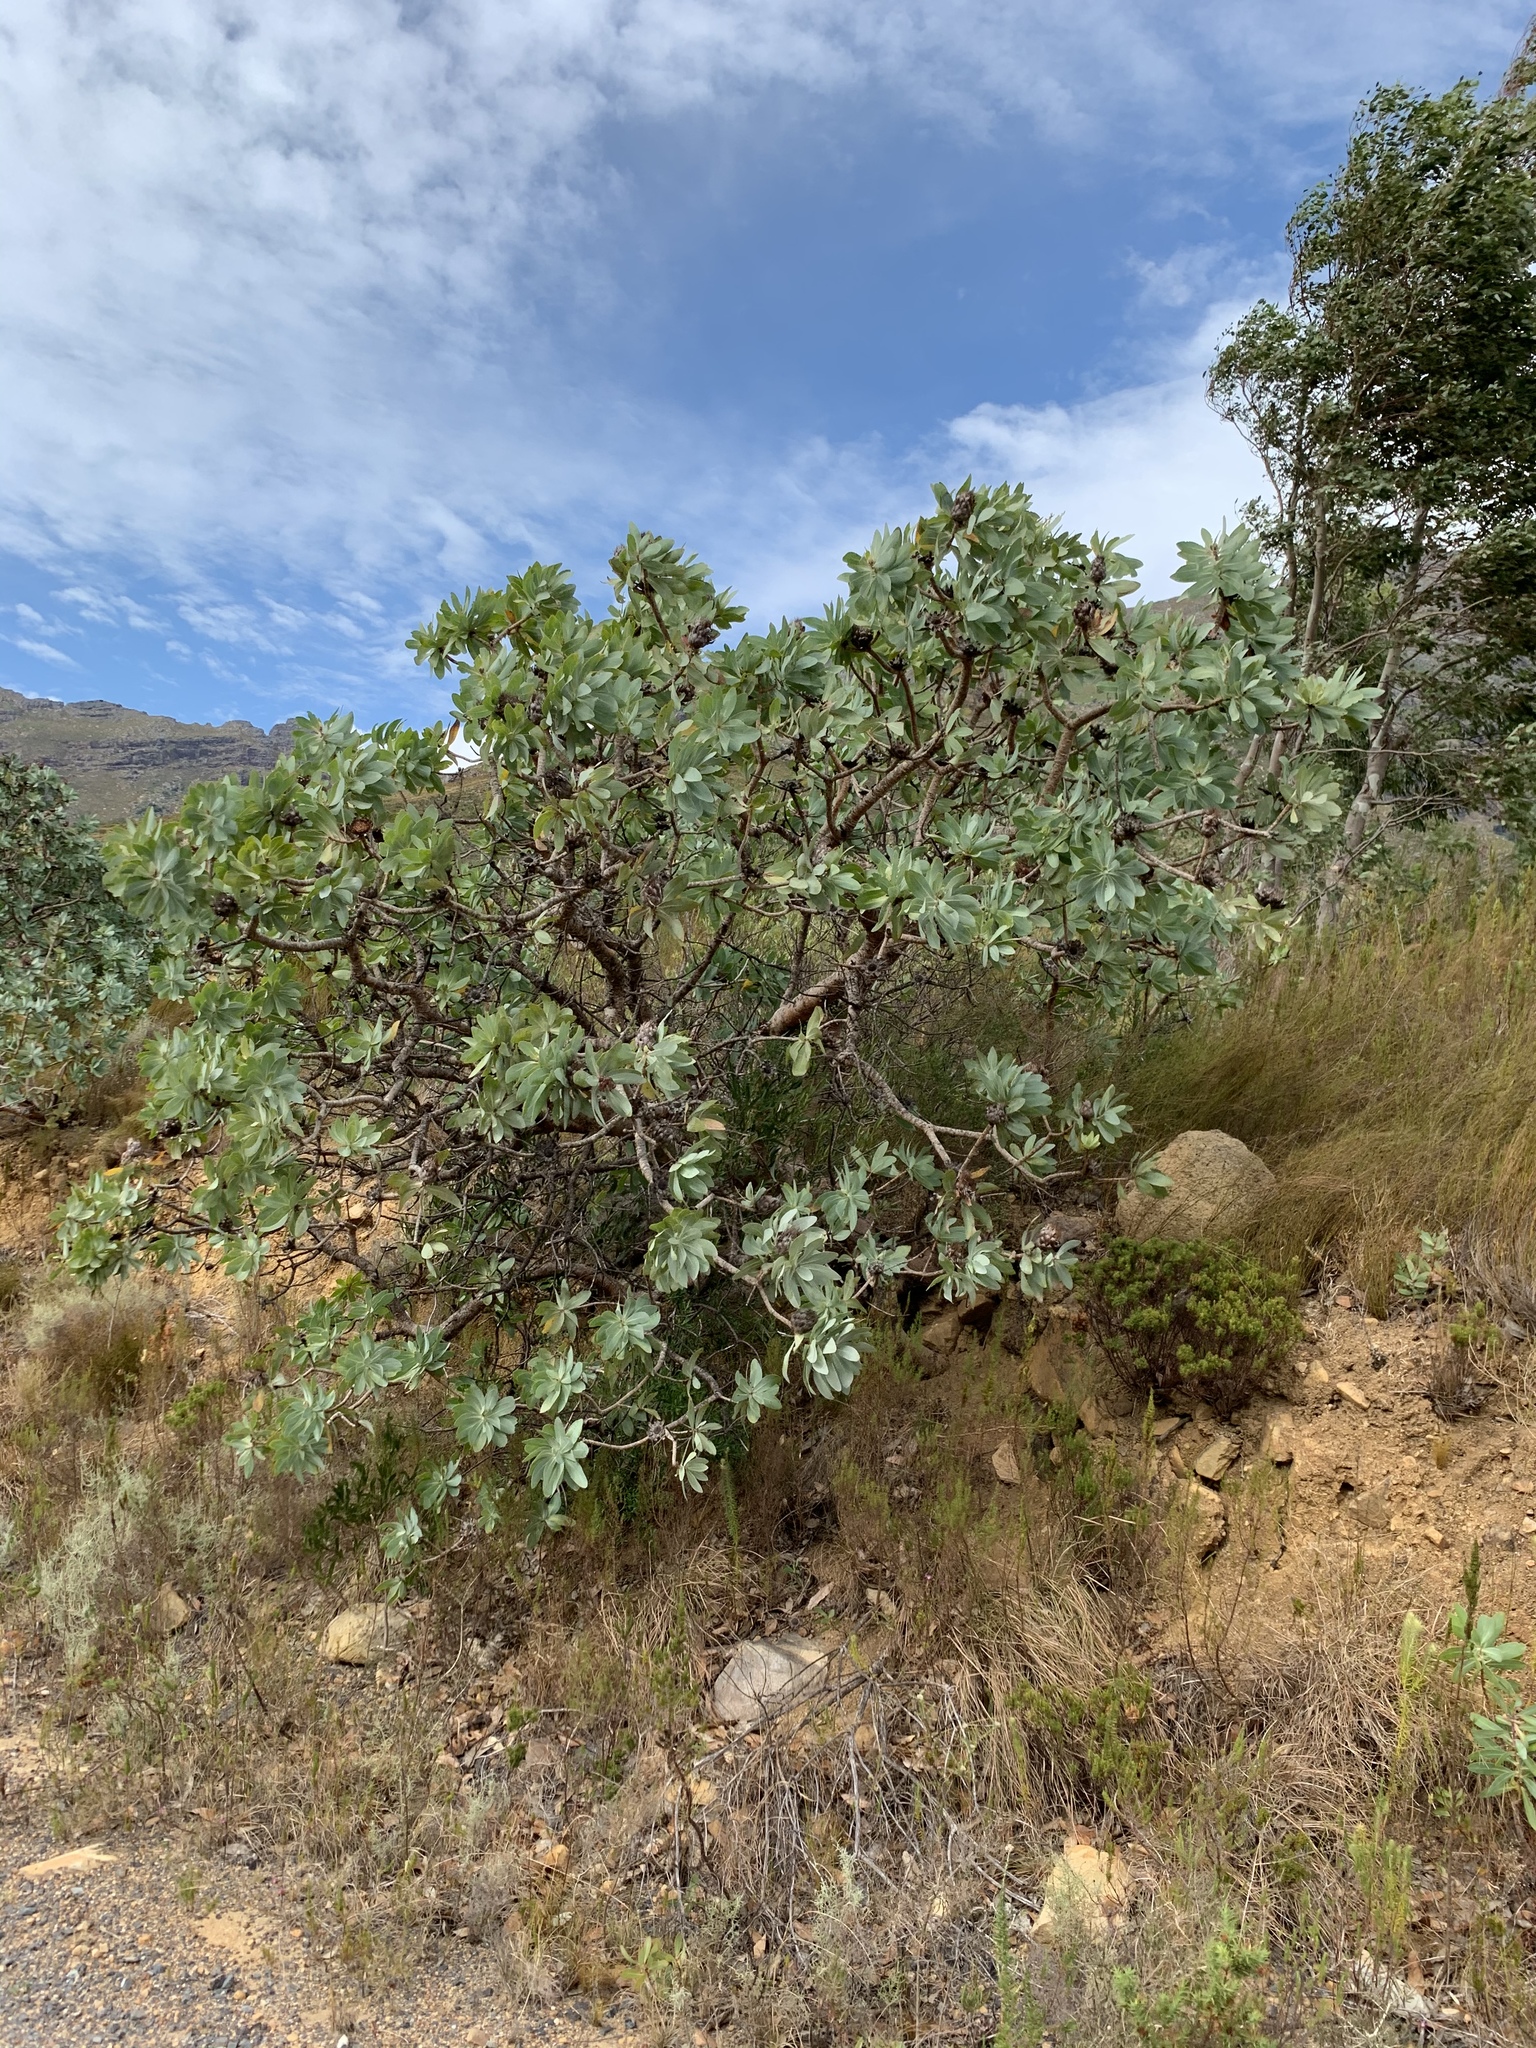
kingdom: Plantae
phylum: Tracheophyta
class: Magnoliopsida
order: Proteales
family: Proteaceae
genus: Protea
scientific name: Protea nitida
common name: Tree protea
